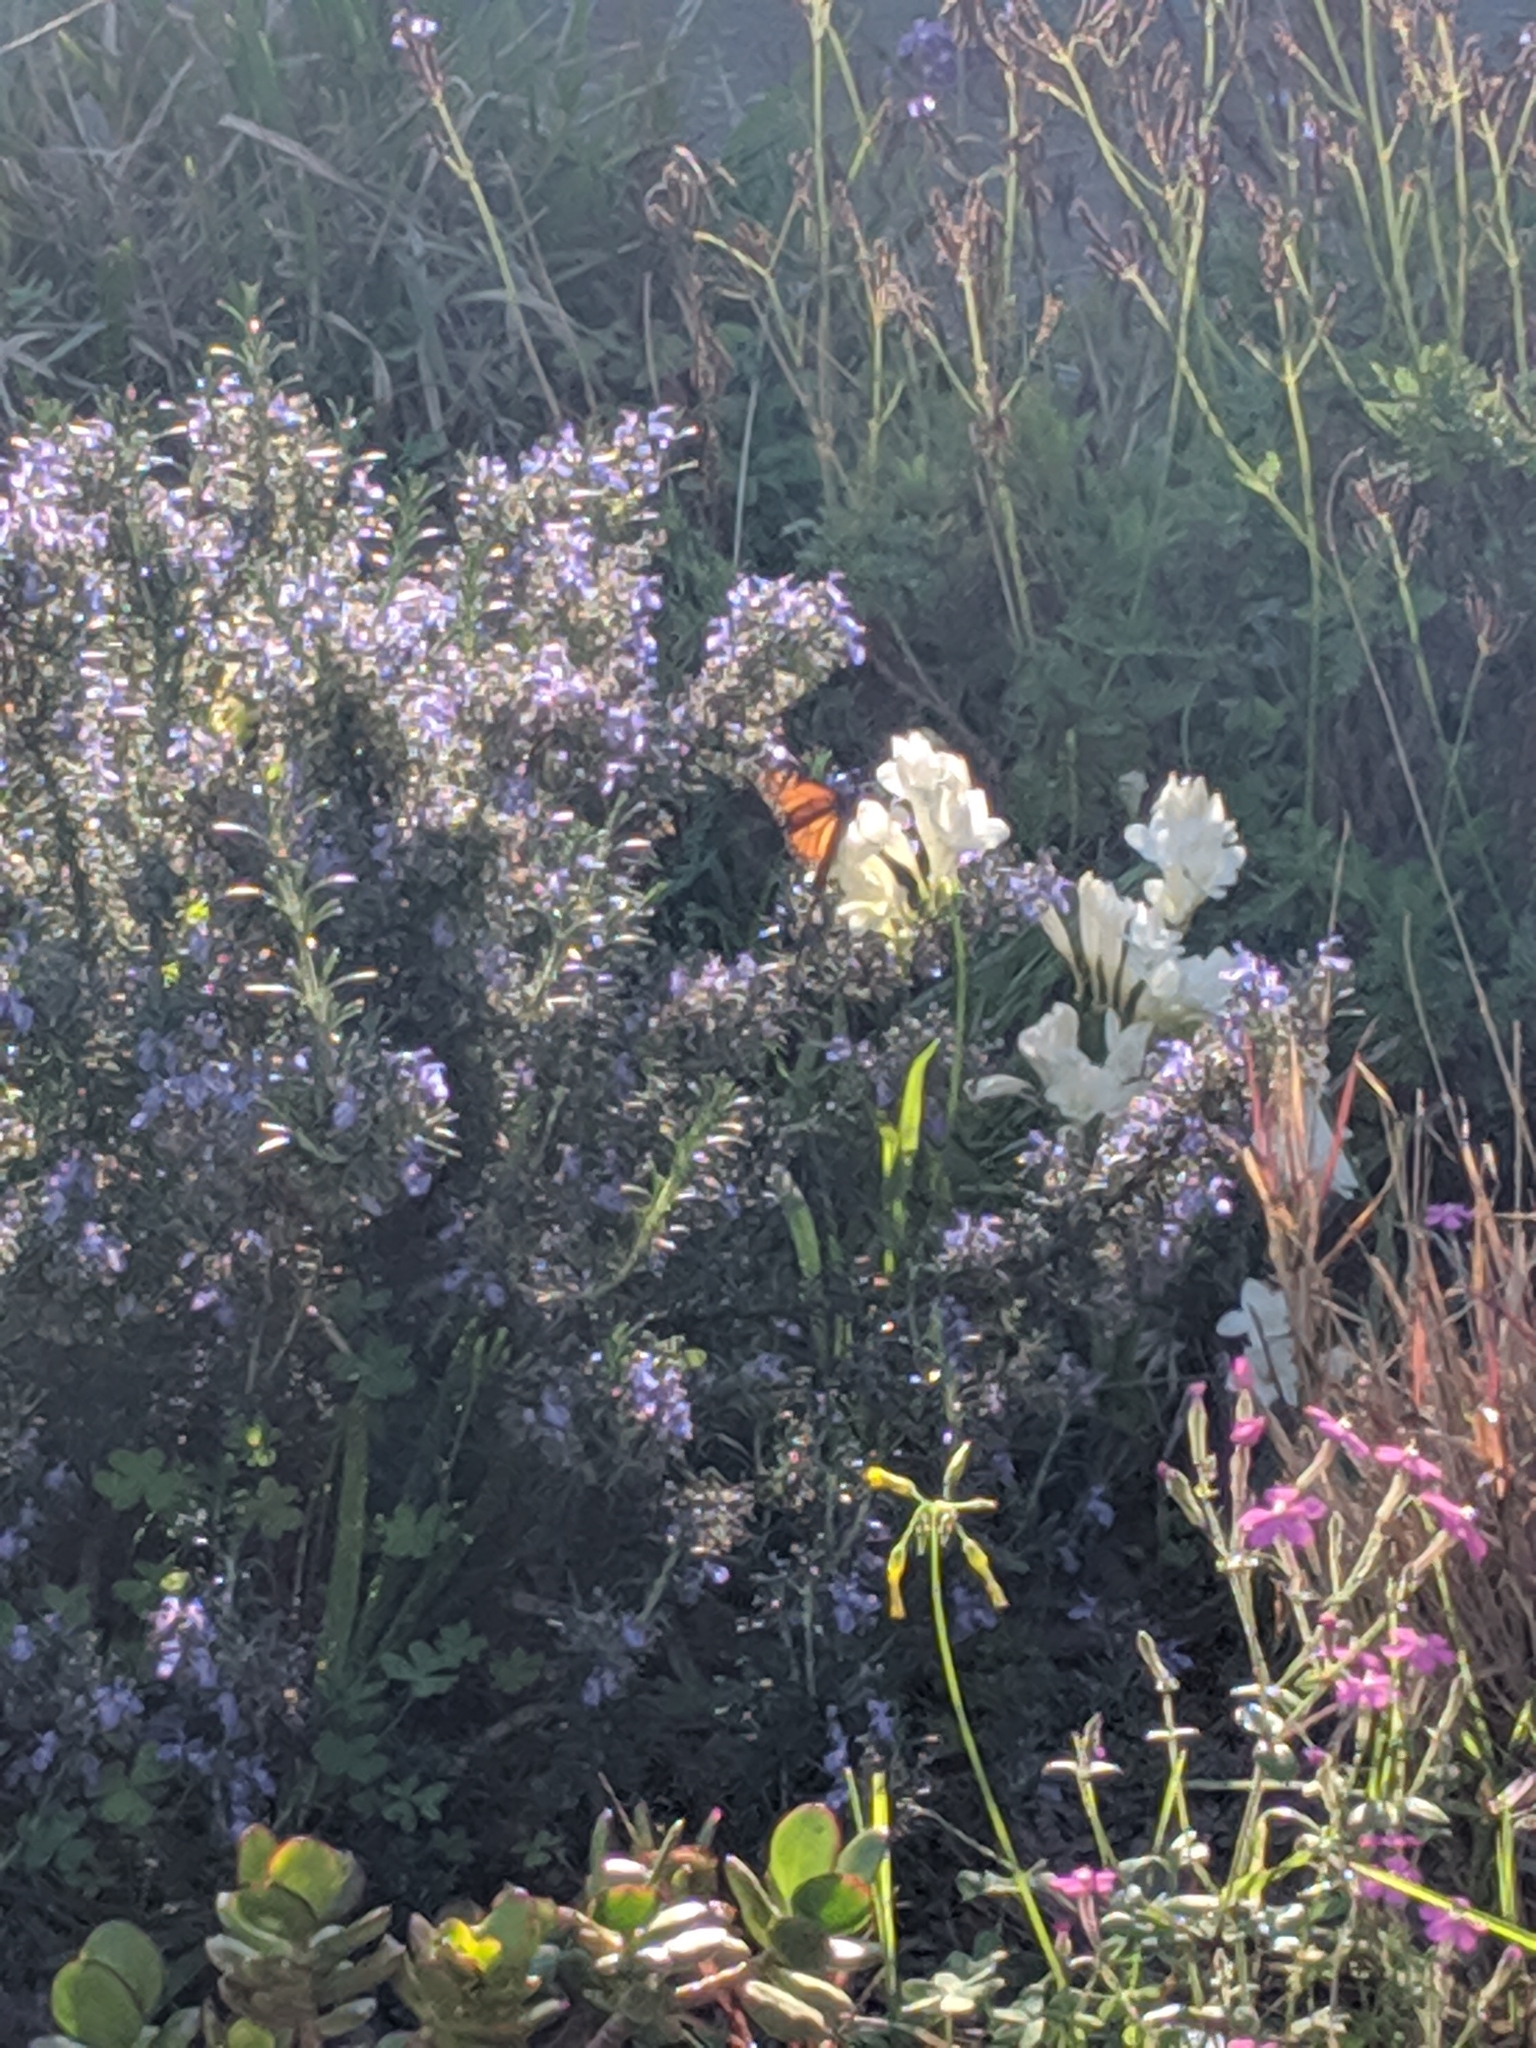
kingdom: Animalia
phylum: Arthropoda
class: Insecta
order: Lepidoptera
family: Nymphalidae
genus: Danaus
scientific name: Danaus plexippus
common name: Monarch
